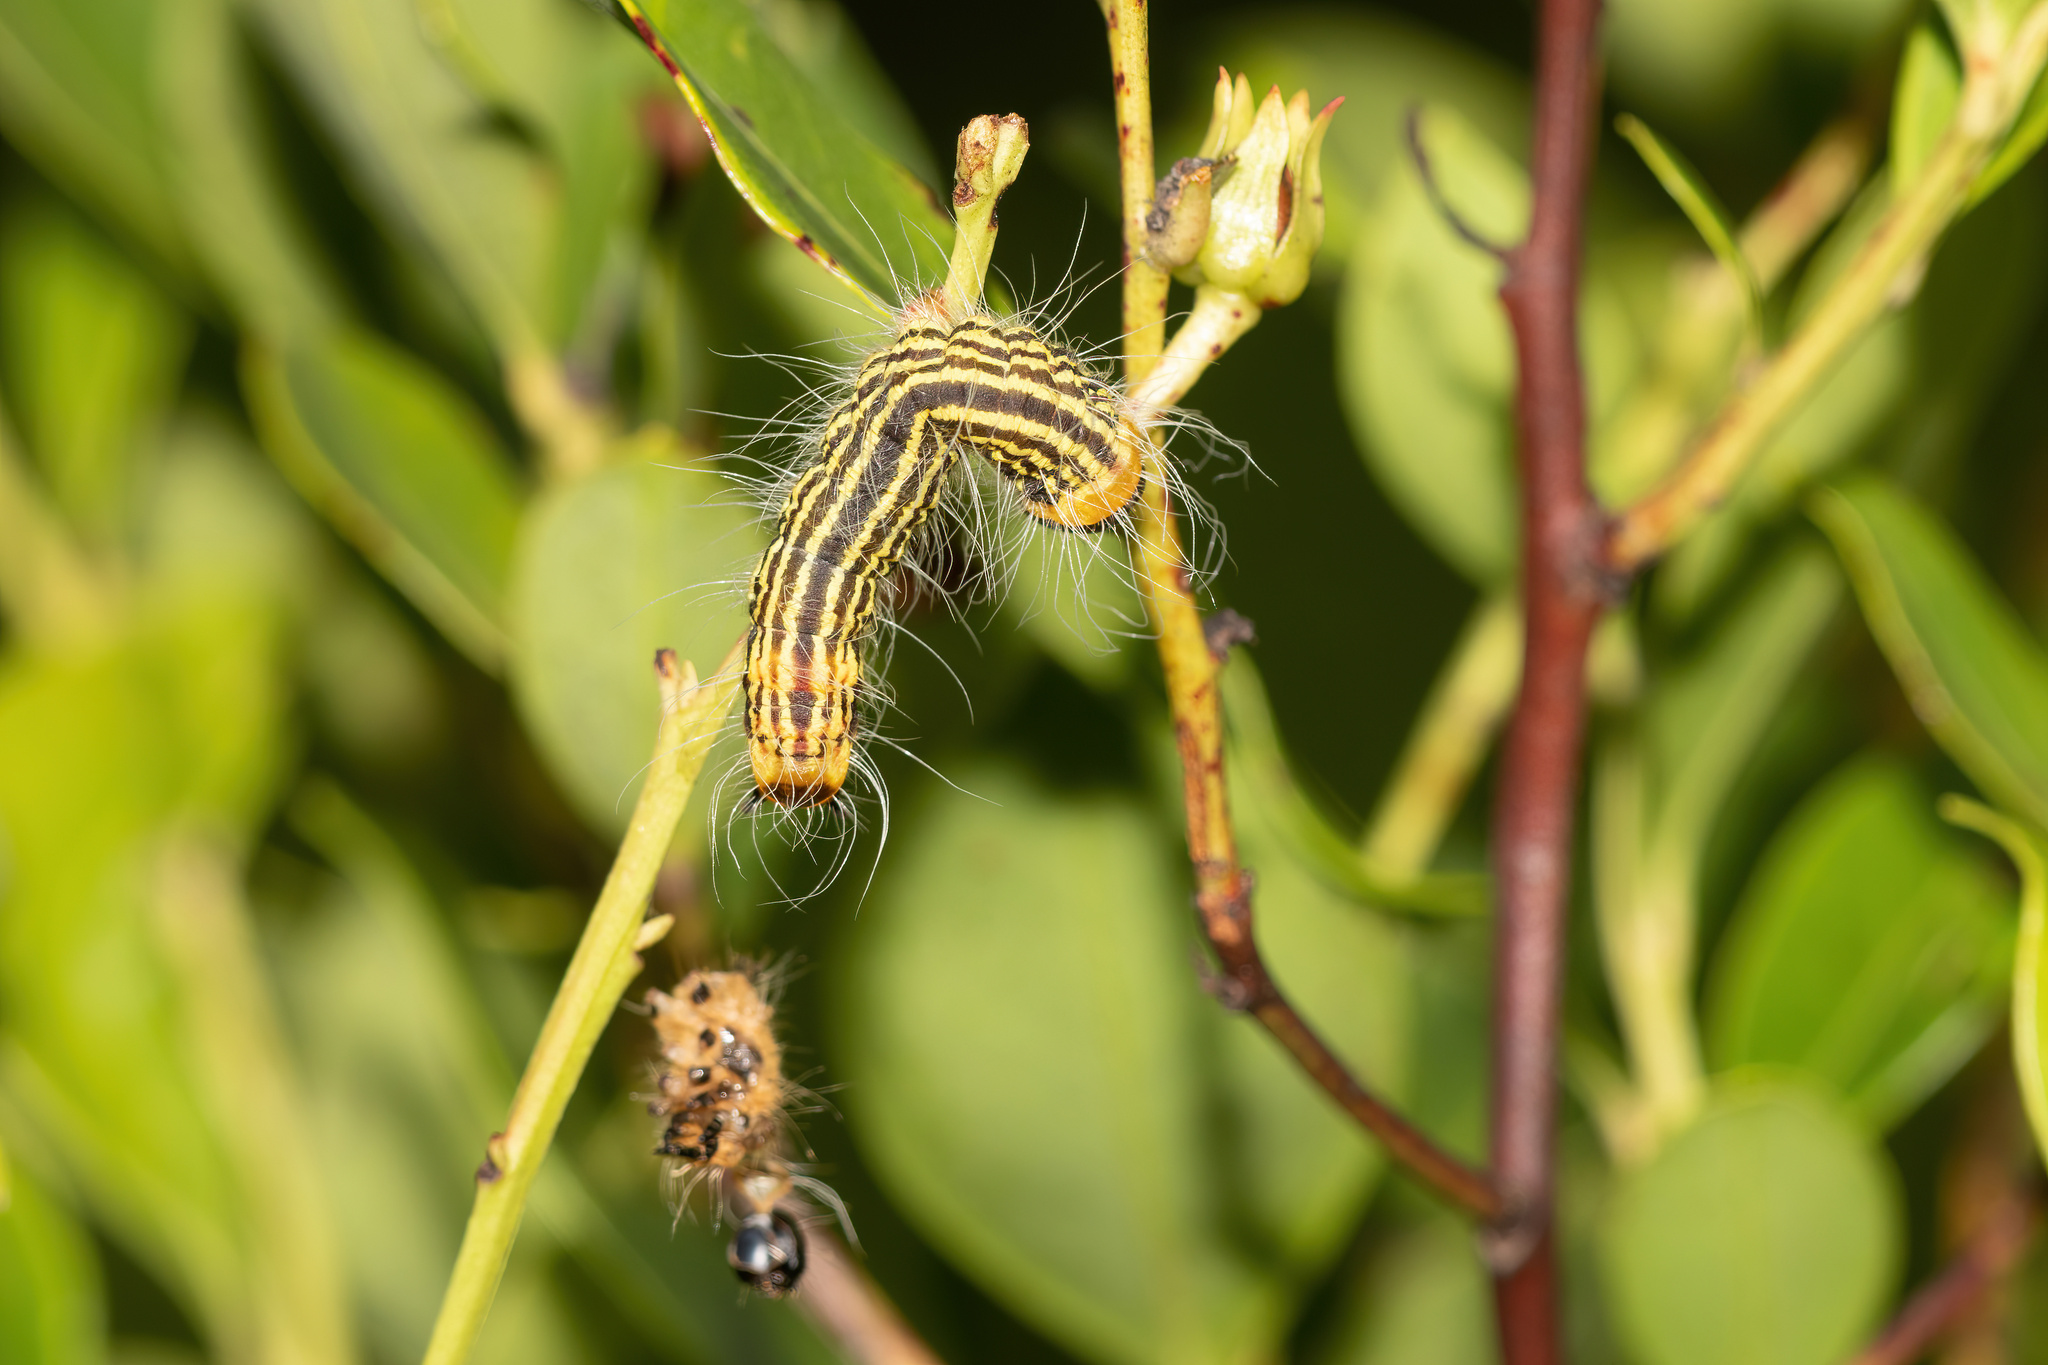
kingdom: Animalia
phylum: Arthropoda
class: Insecta
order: Lepidoptera
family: Notodontidae
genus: Datana
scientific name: Datana ministra
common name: Yellow-necked caterpillar moth
